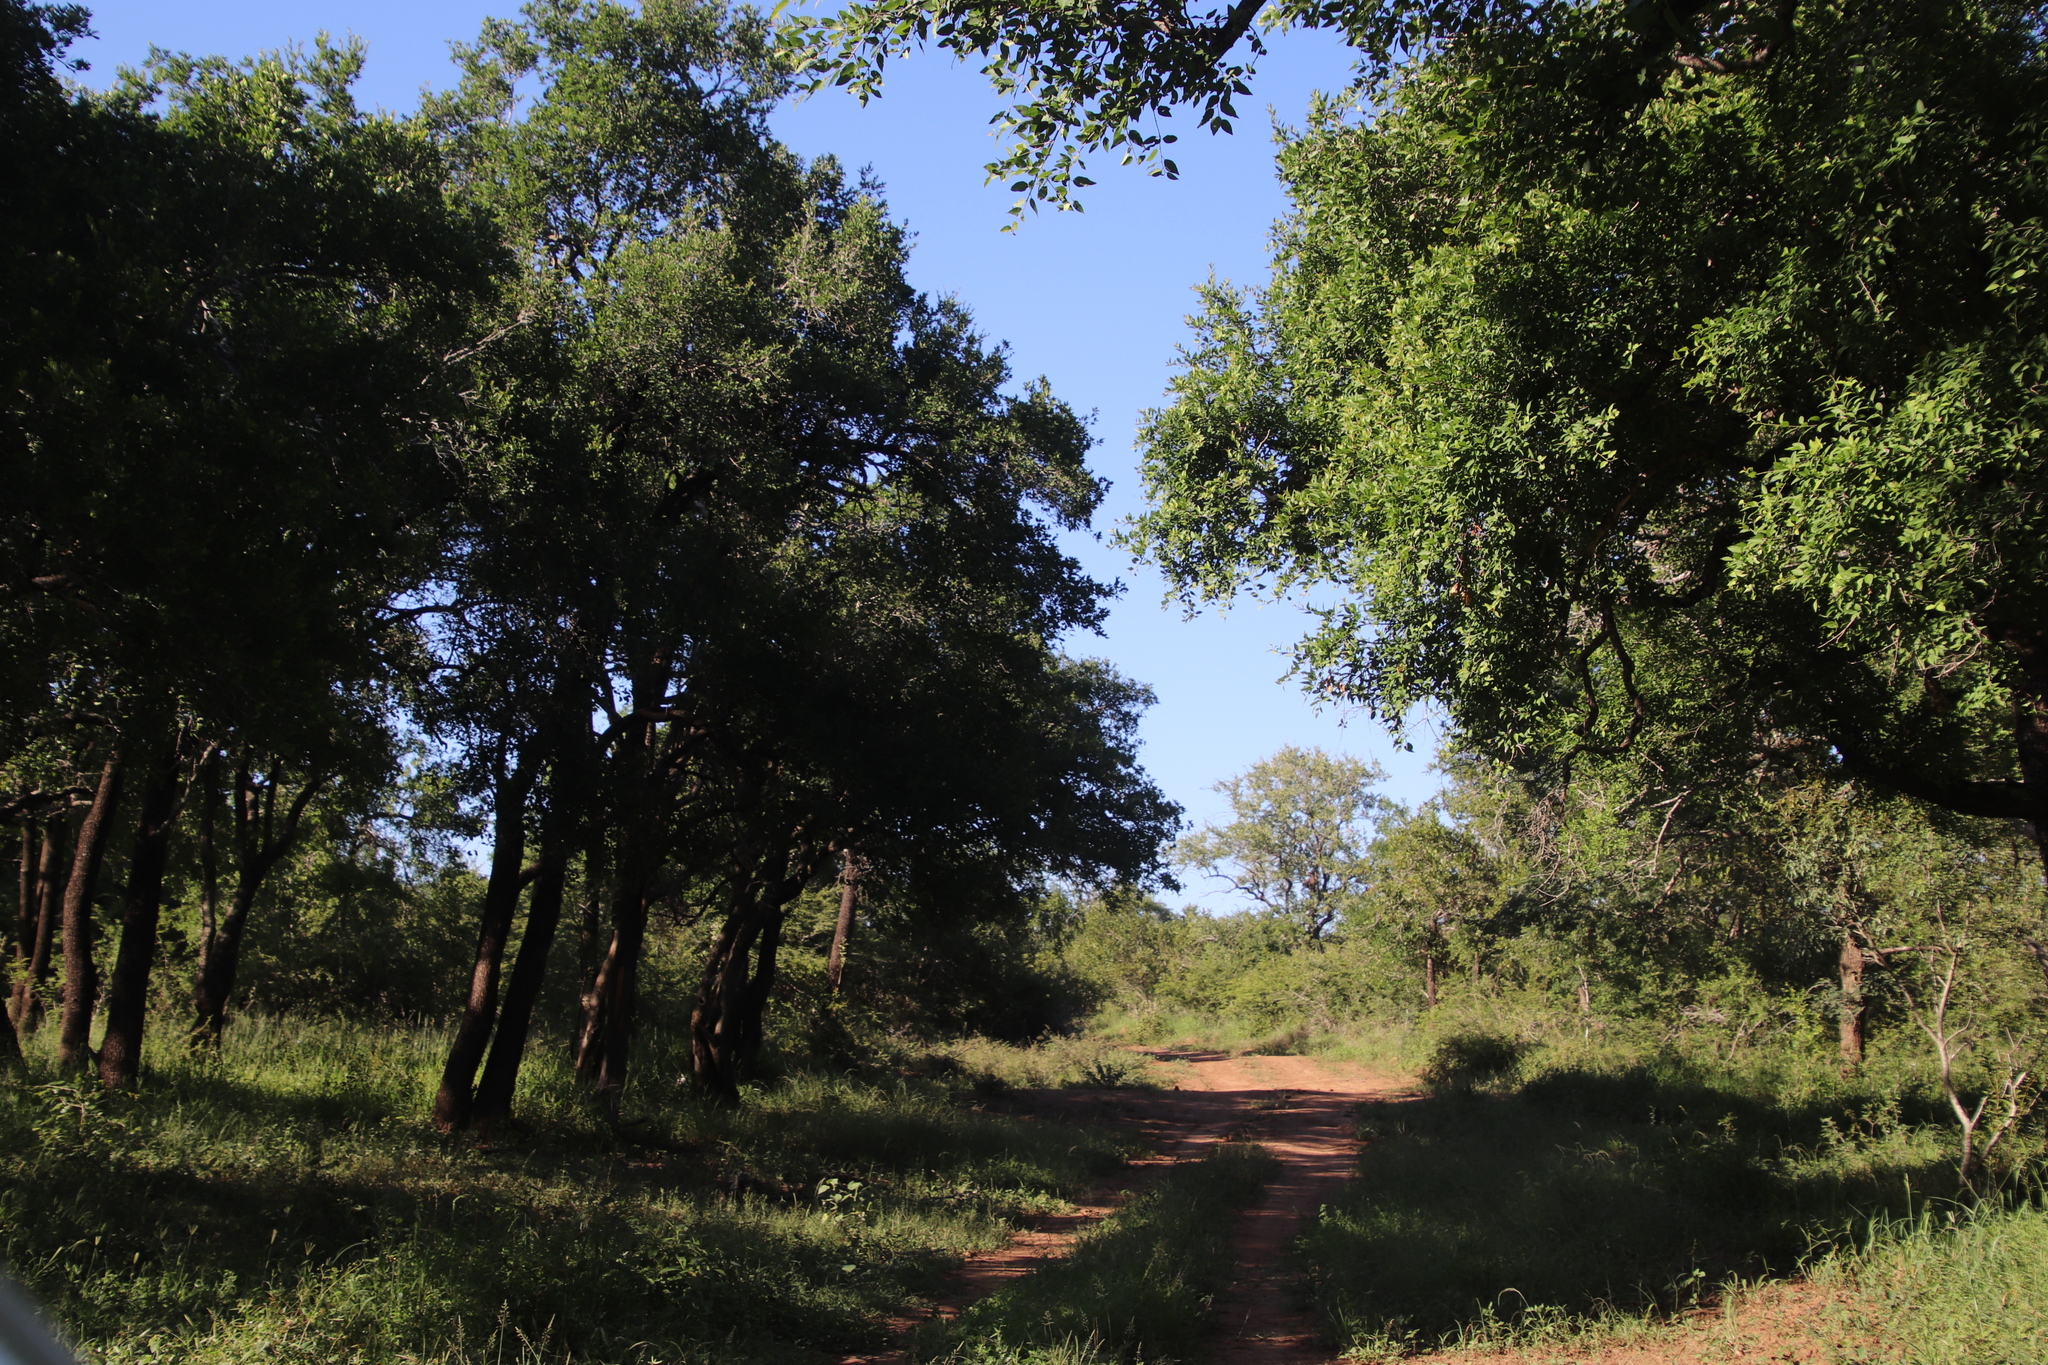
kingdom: Plantae
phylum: Tracheophyta
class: Magnoliopsida
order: Malpighiales
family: Euphorbiaceae
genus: Spirostachys
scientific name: Spirostachys africana
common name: Tamboti
